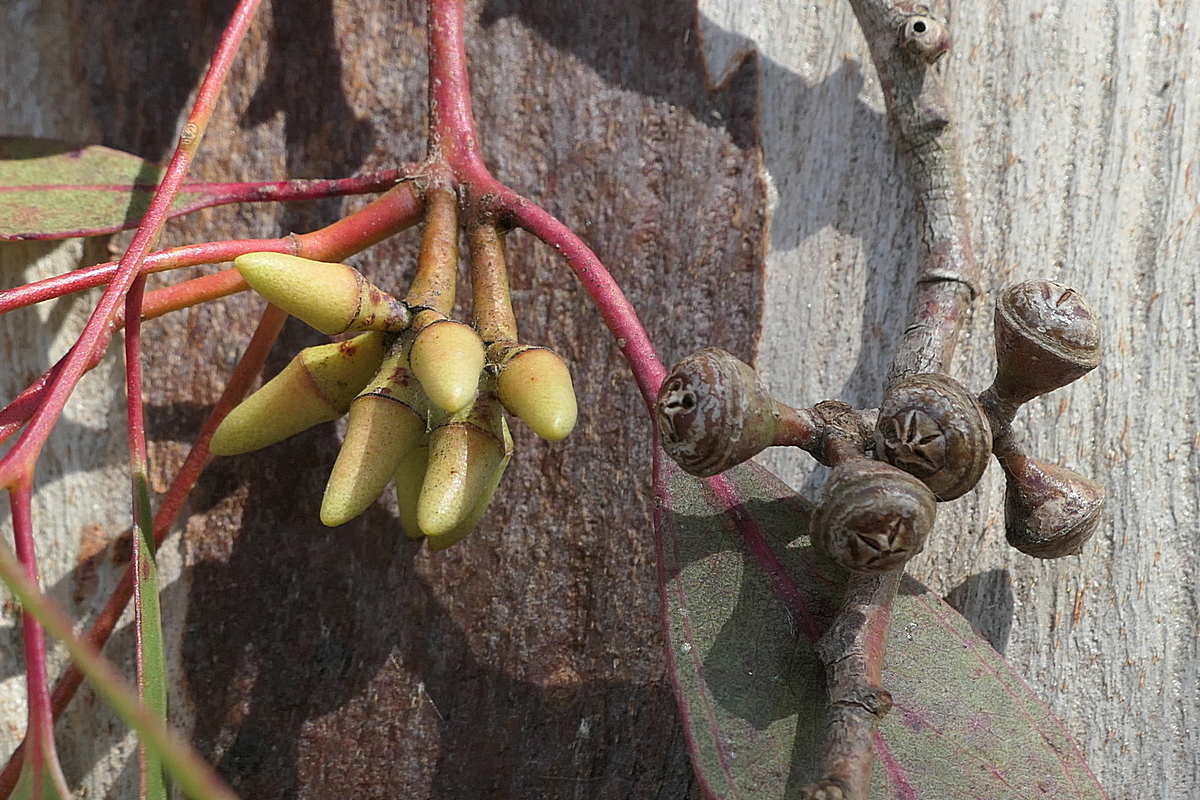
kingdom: Plantae
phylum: Tracheophyta
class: Magnoliopsida
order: Myrtales
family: Myrtaceae
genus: Eucalyptus
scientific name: Eucalyptus tereticornis
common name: Forest redgum
